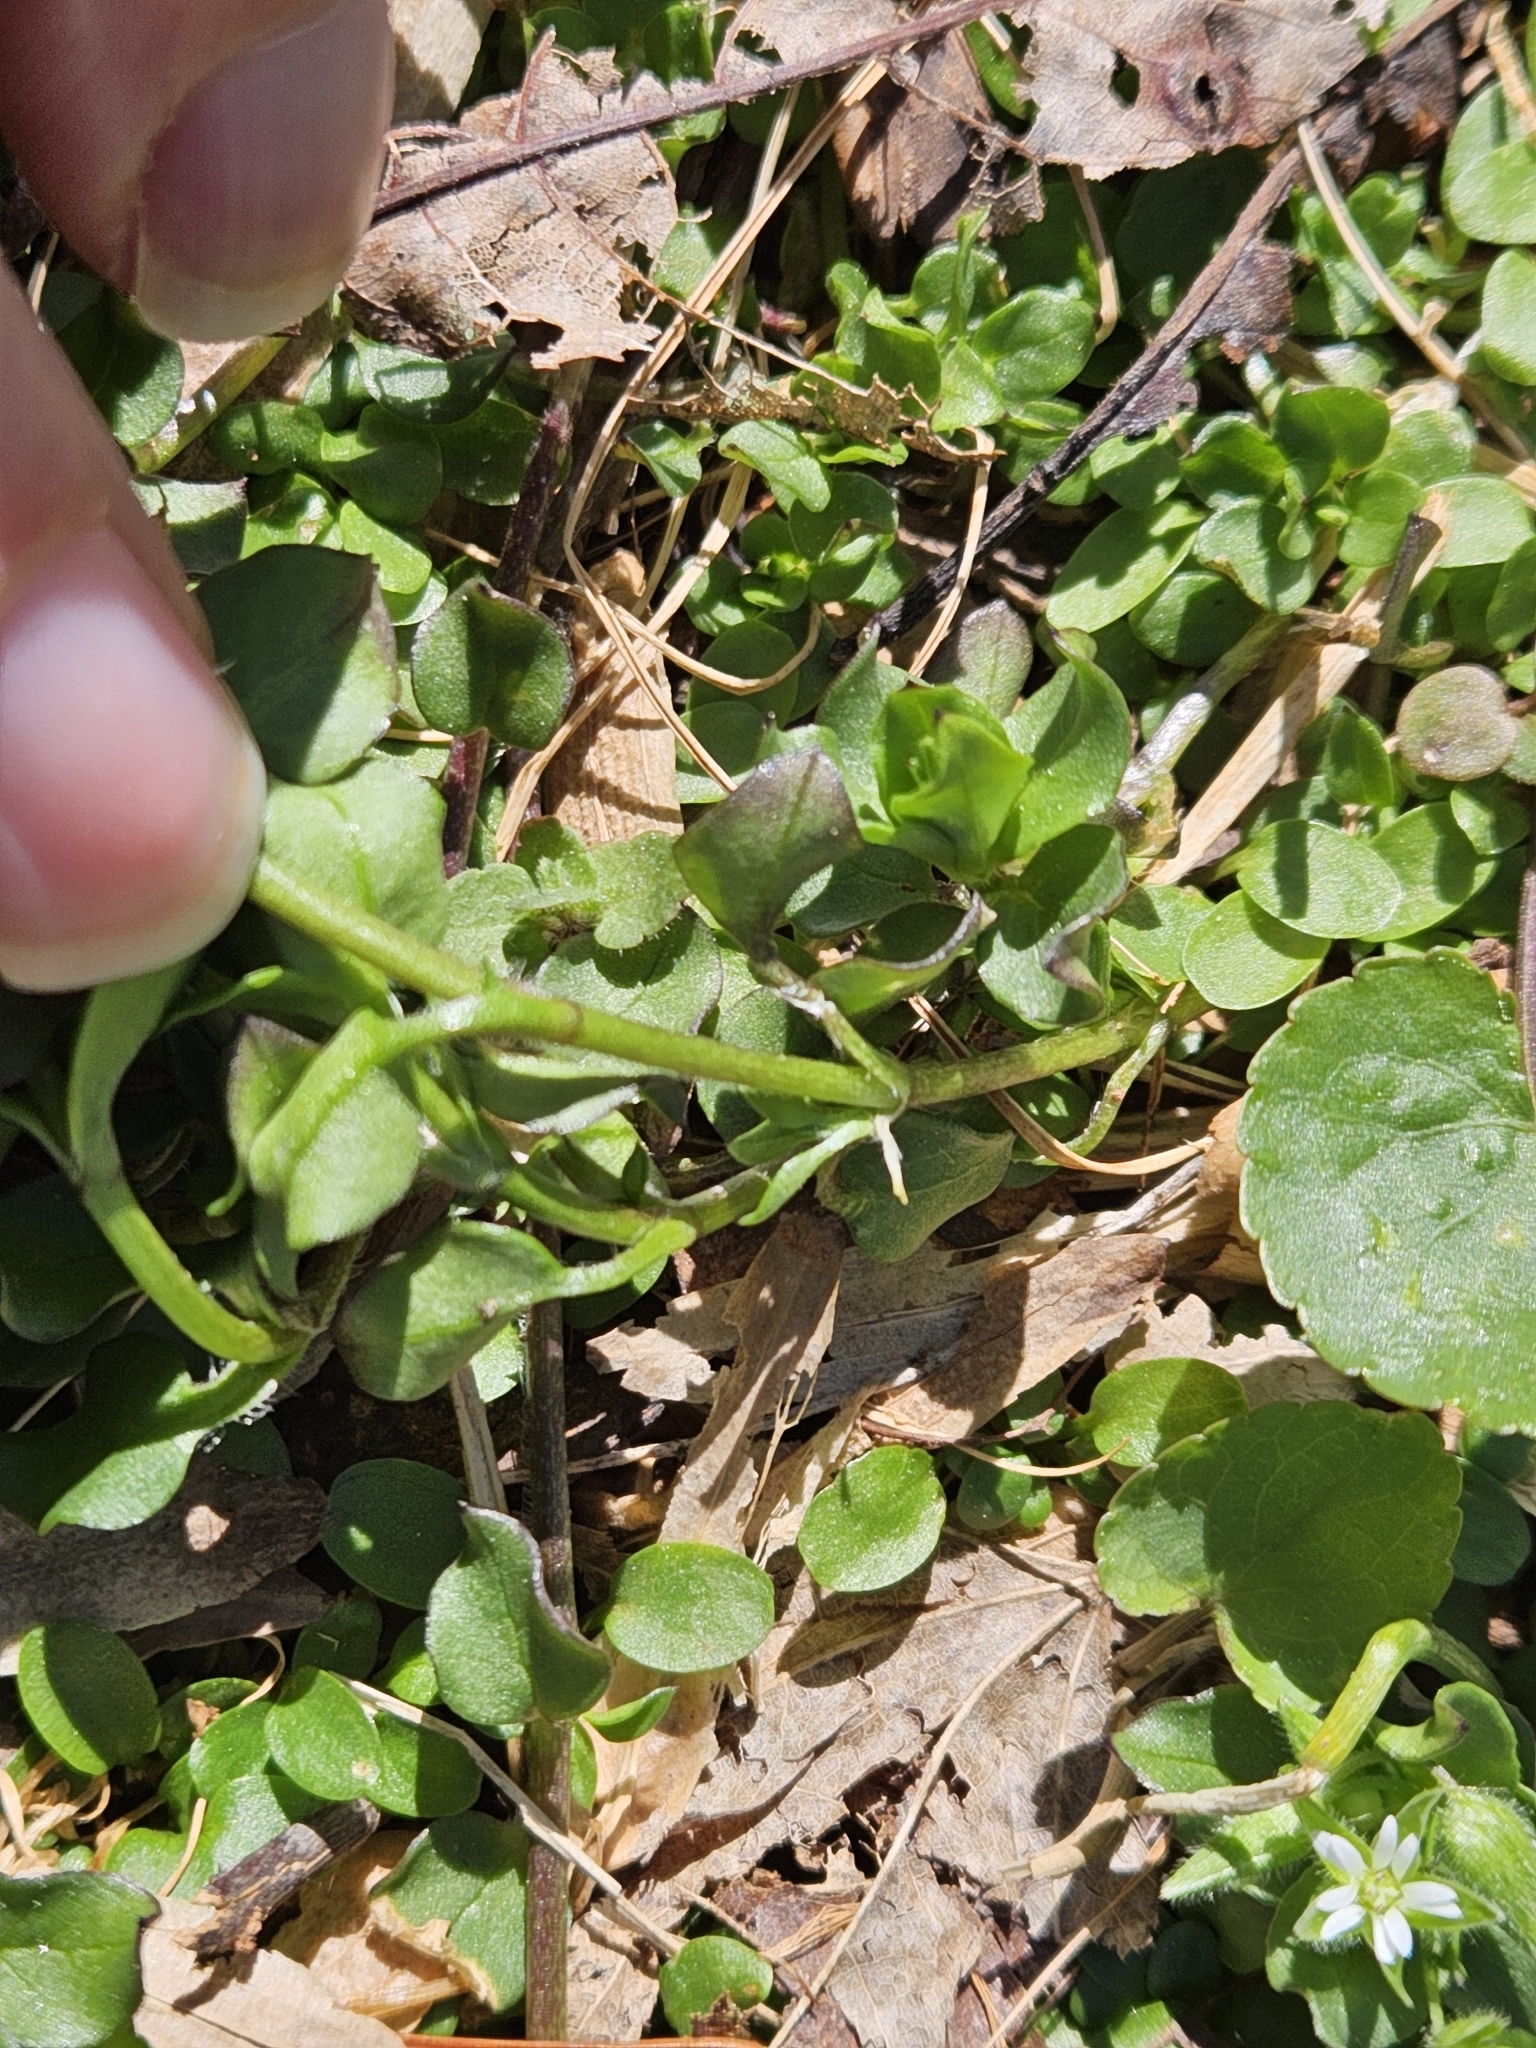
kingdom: Plantae
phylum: Tracheophyta
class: Magnoliopsida
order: Caryophyllales
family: Caryophyllaceae
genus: Stellaria
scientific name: Stellaria media
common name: Common chickweed
